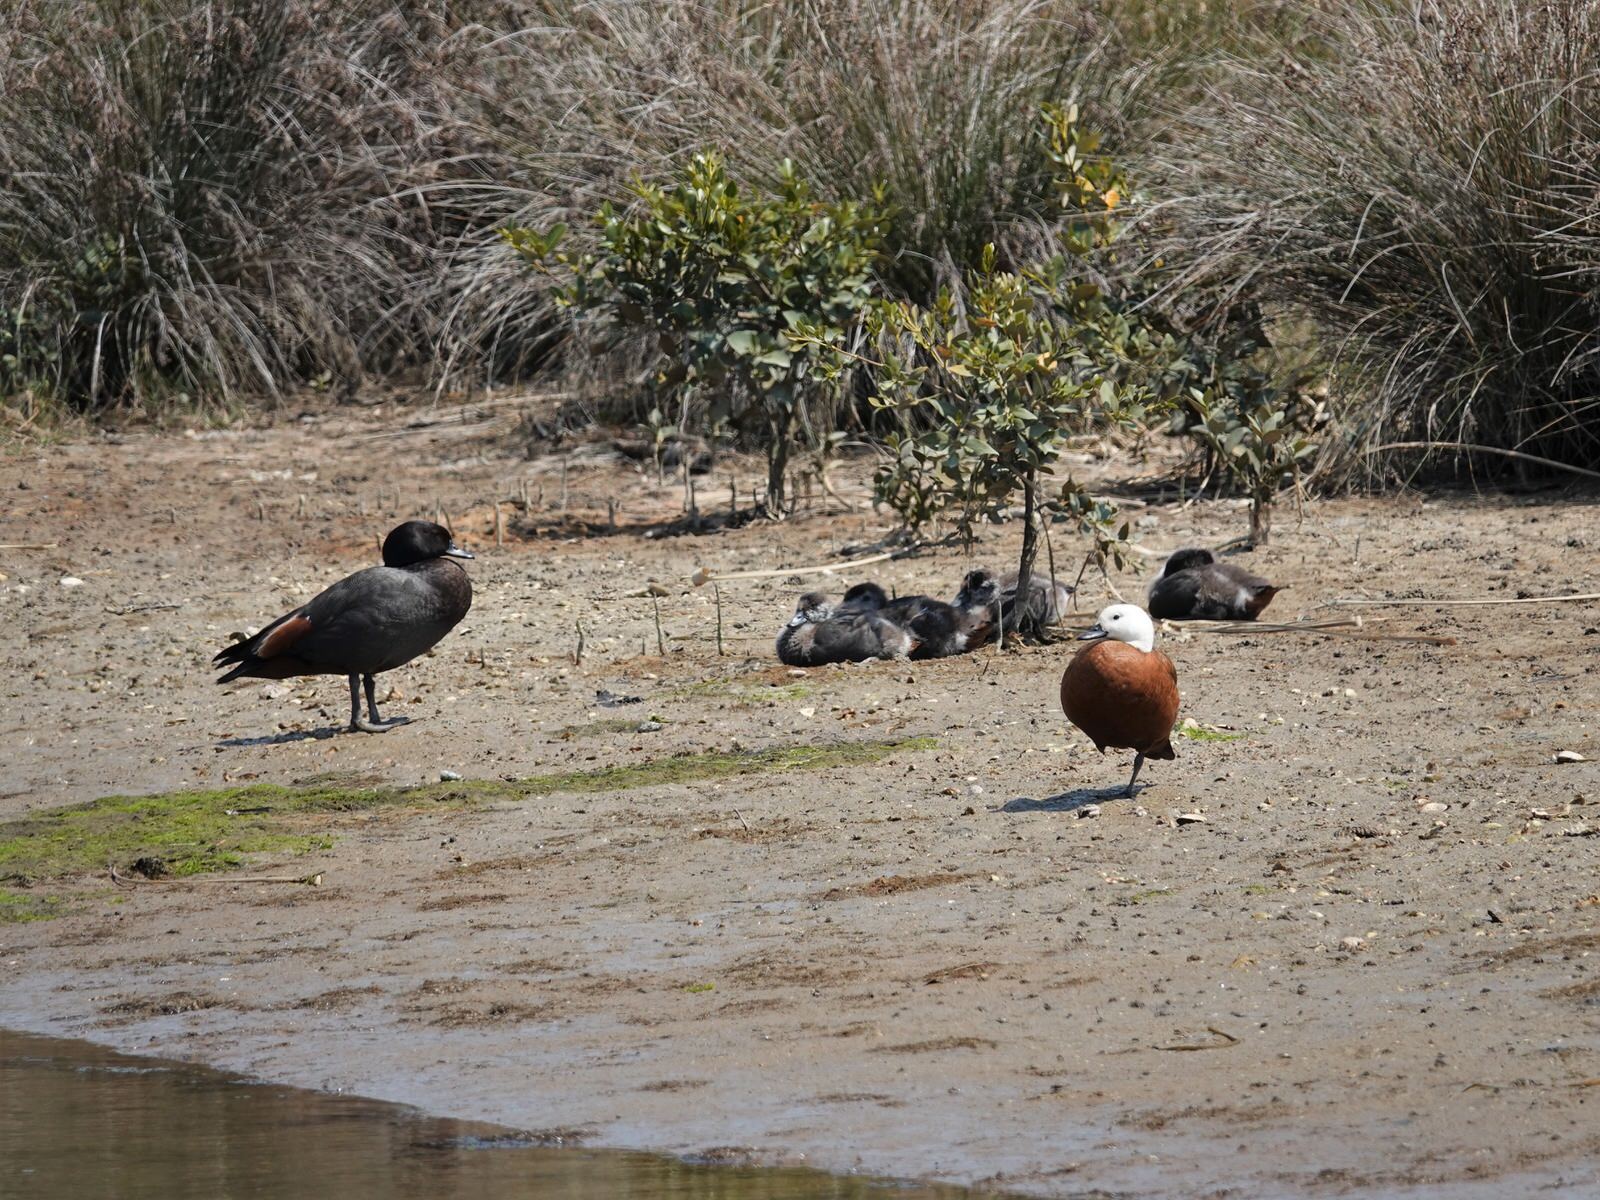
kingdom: Animalia
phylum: Chordata
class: Aves
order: Anseriformes
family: Anatidae
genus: Tadorna
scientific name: Tadorna variegata
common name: Paradise shelduck
